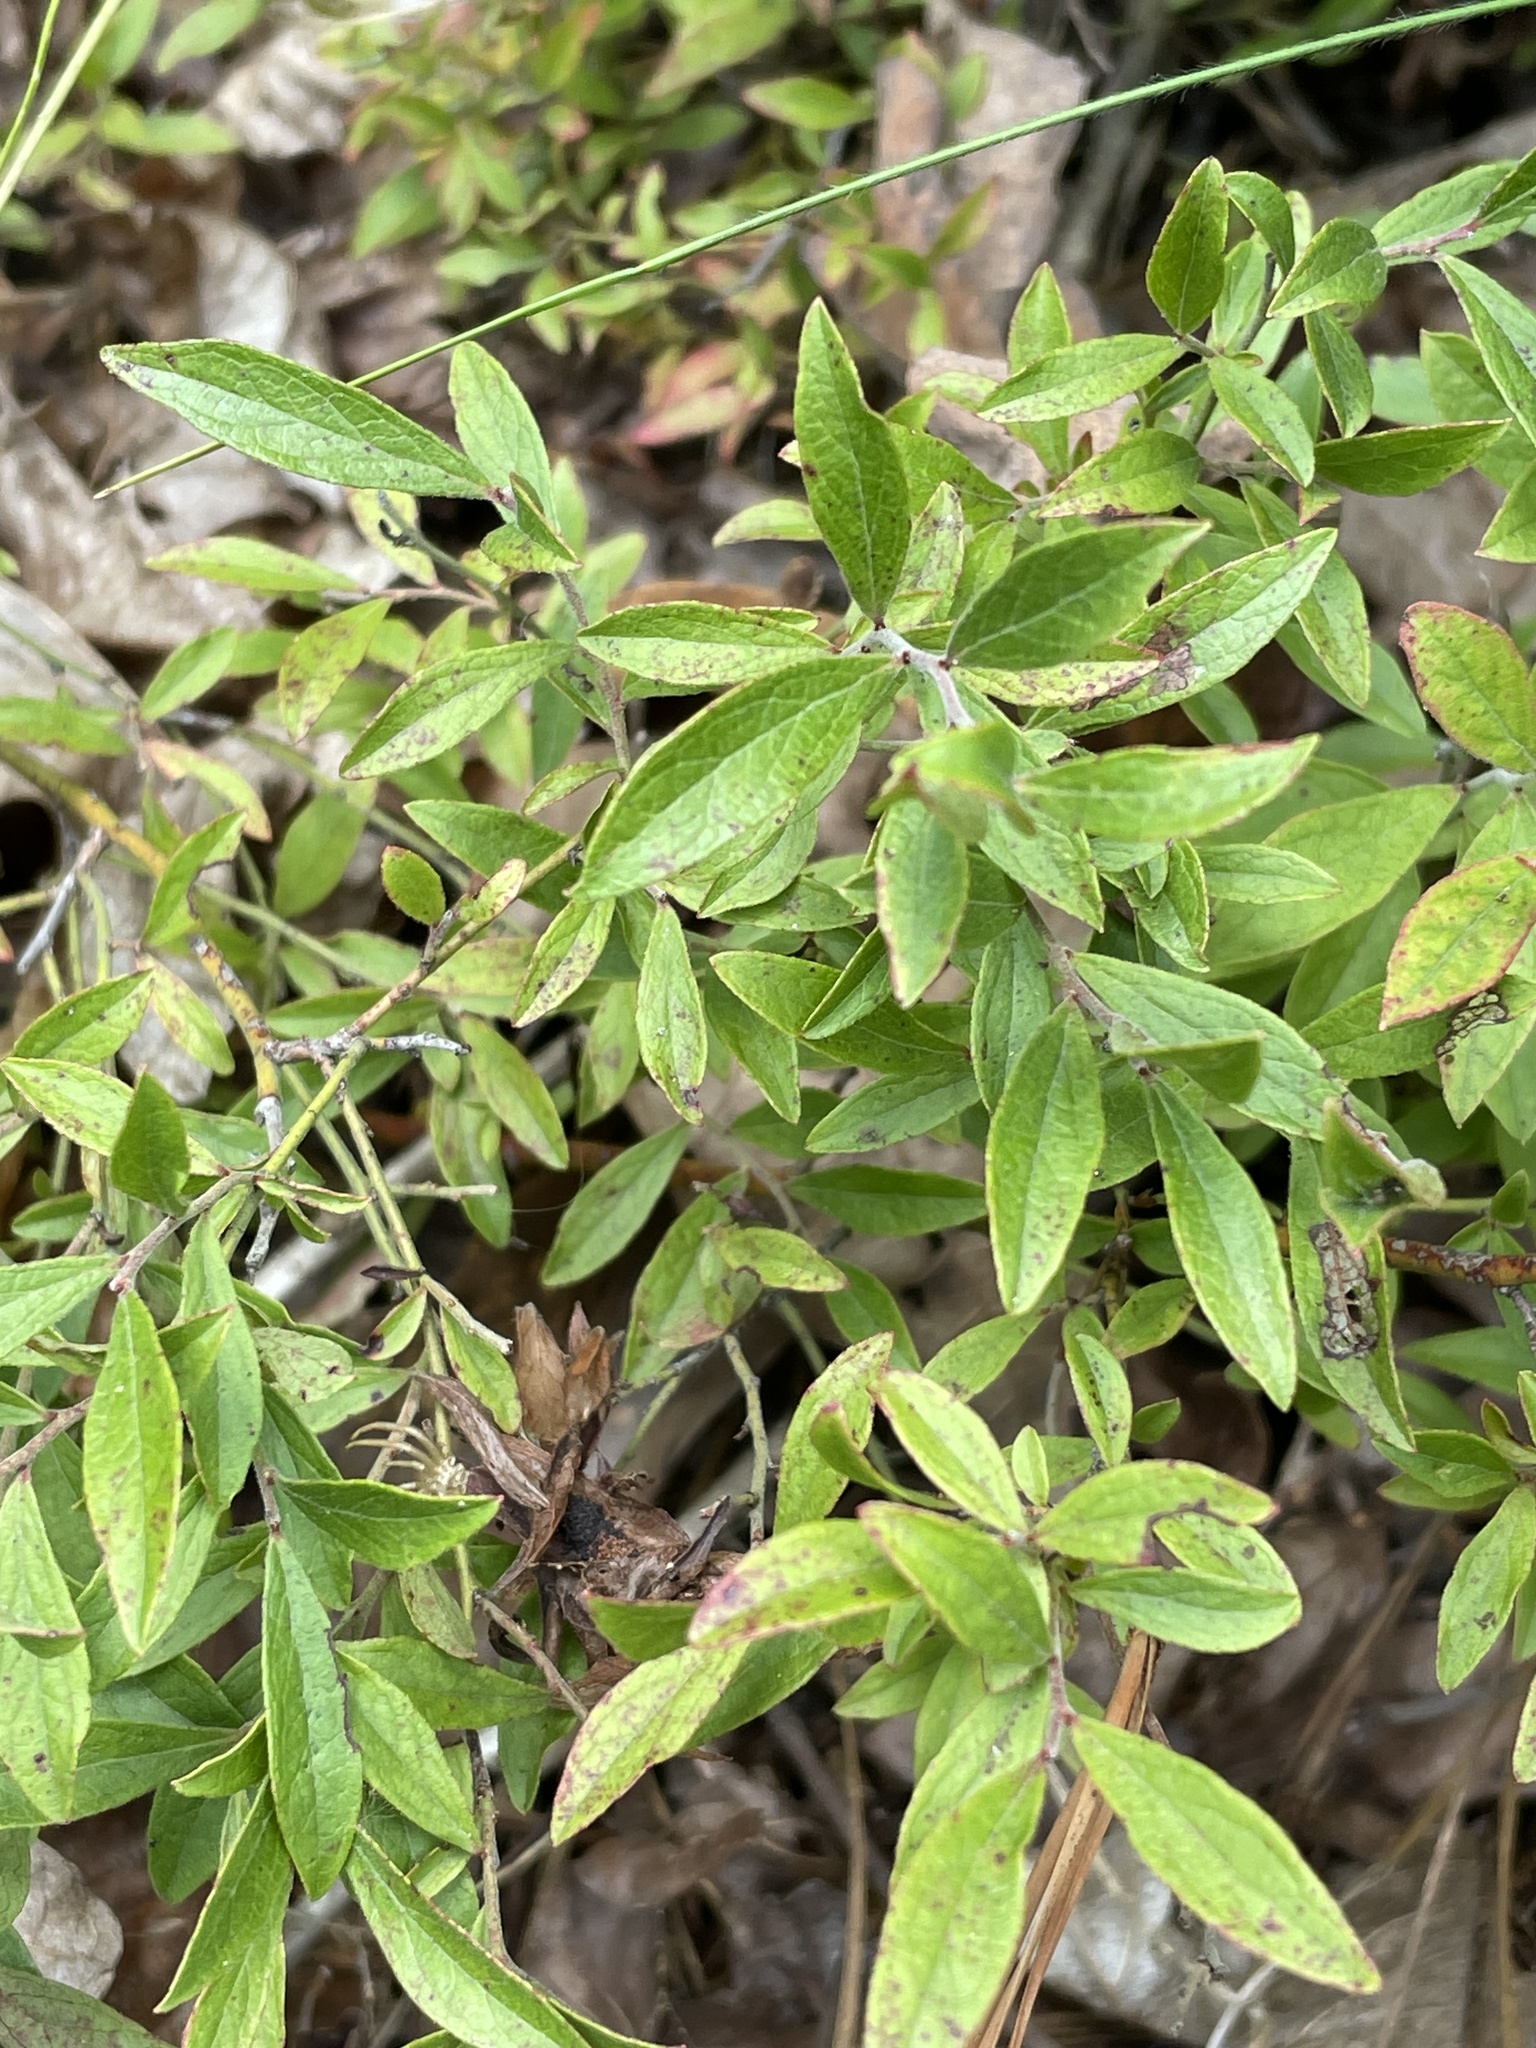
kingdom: Plantae
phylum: Tracheophyta
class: Magnoliopsida
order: Ericales
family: Ericaceae
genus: Vaccinium
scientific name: Vaccinium tenellum
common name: Southern blueberry
